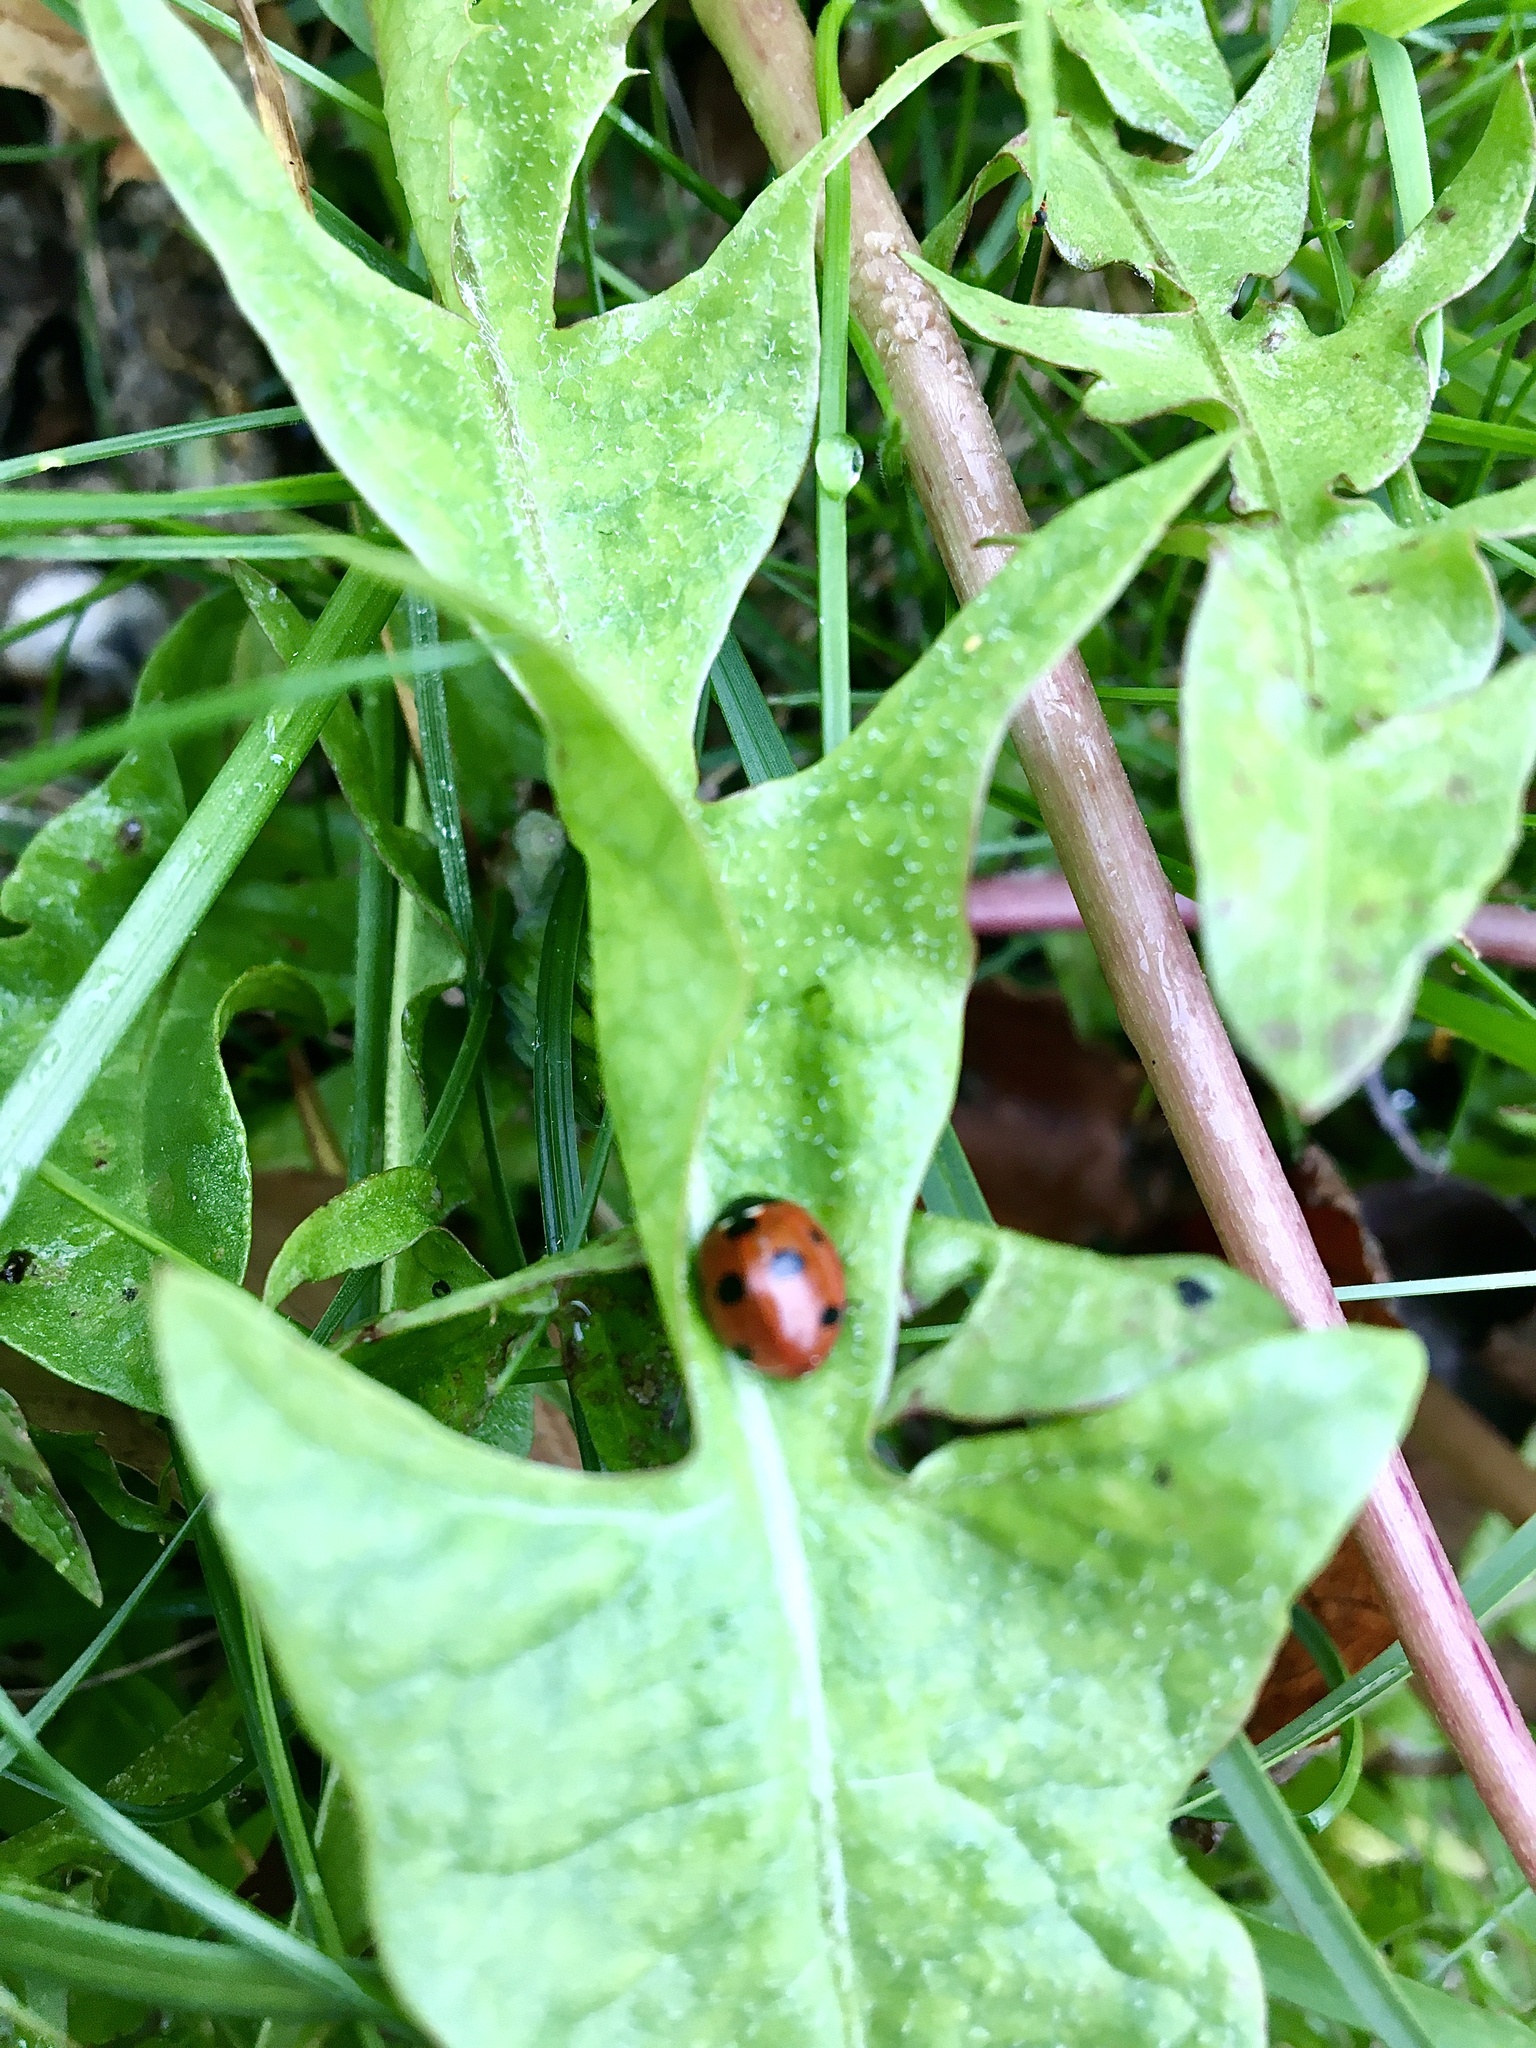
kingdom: Animalia
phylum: Arthropoda
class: Insecta
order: Coleoptera
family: Coccinellidae
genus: Coccinella
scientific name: Coccinella septempunctata
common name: Sevenspotted lady beetle
